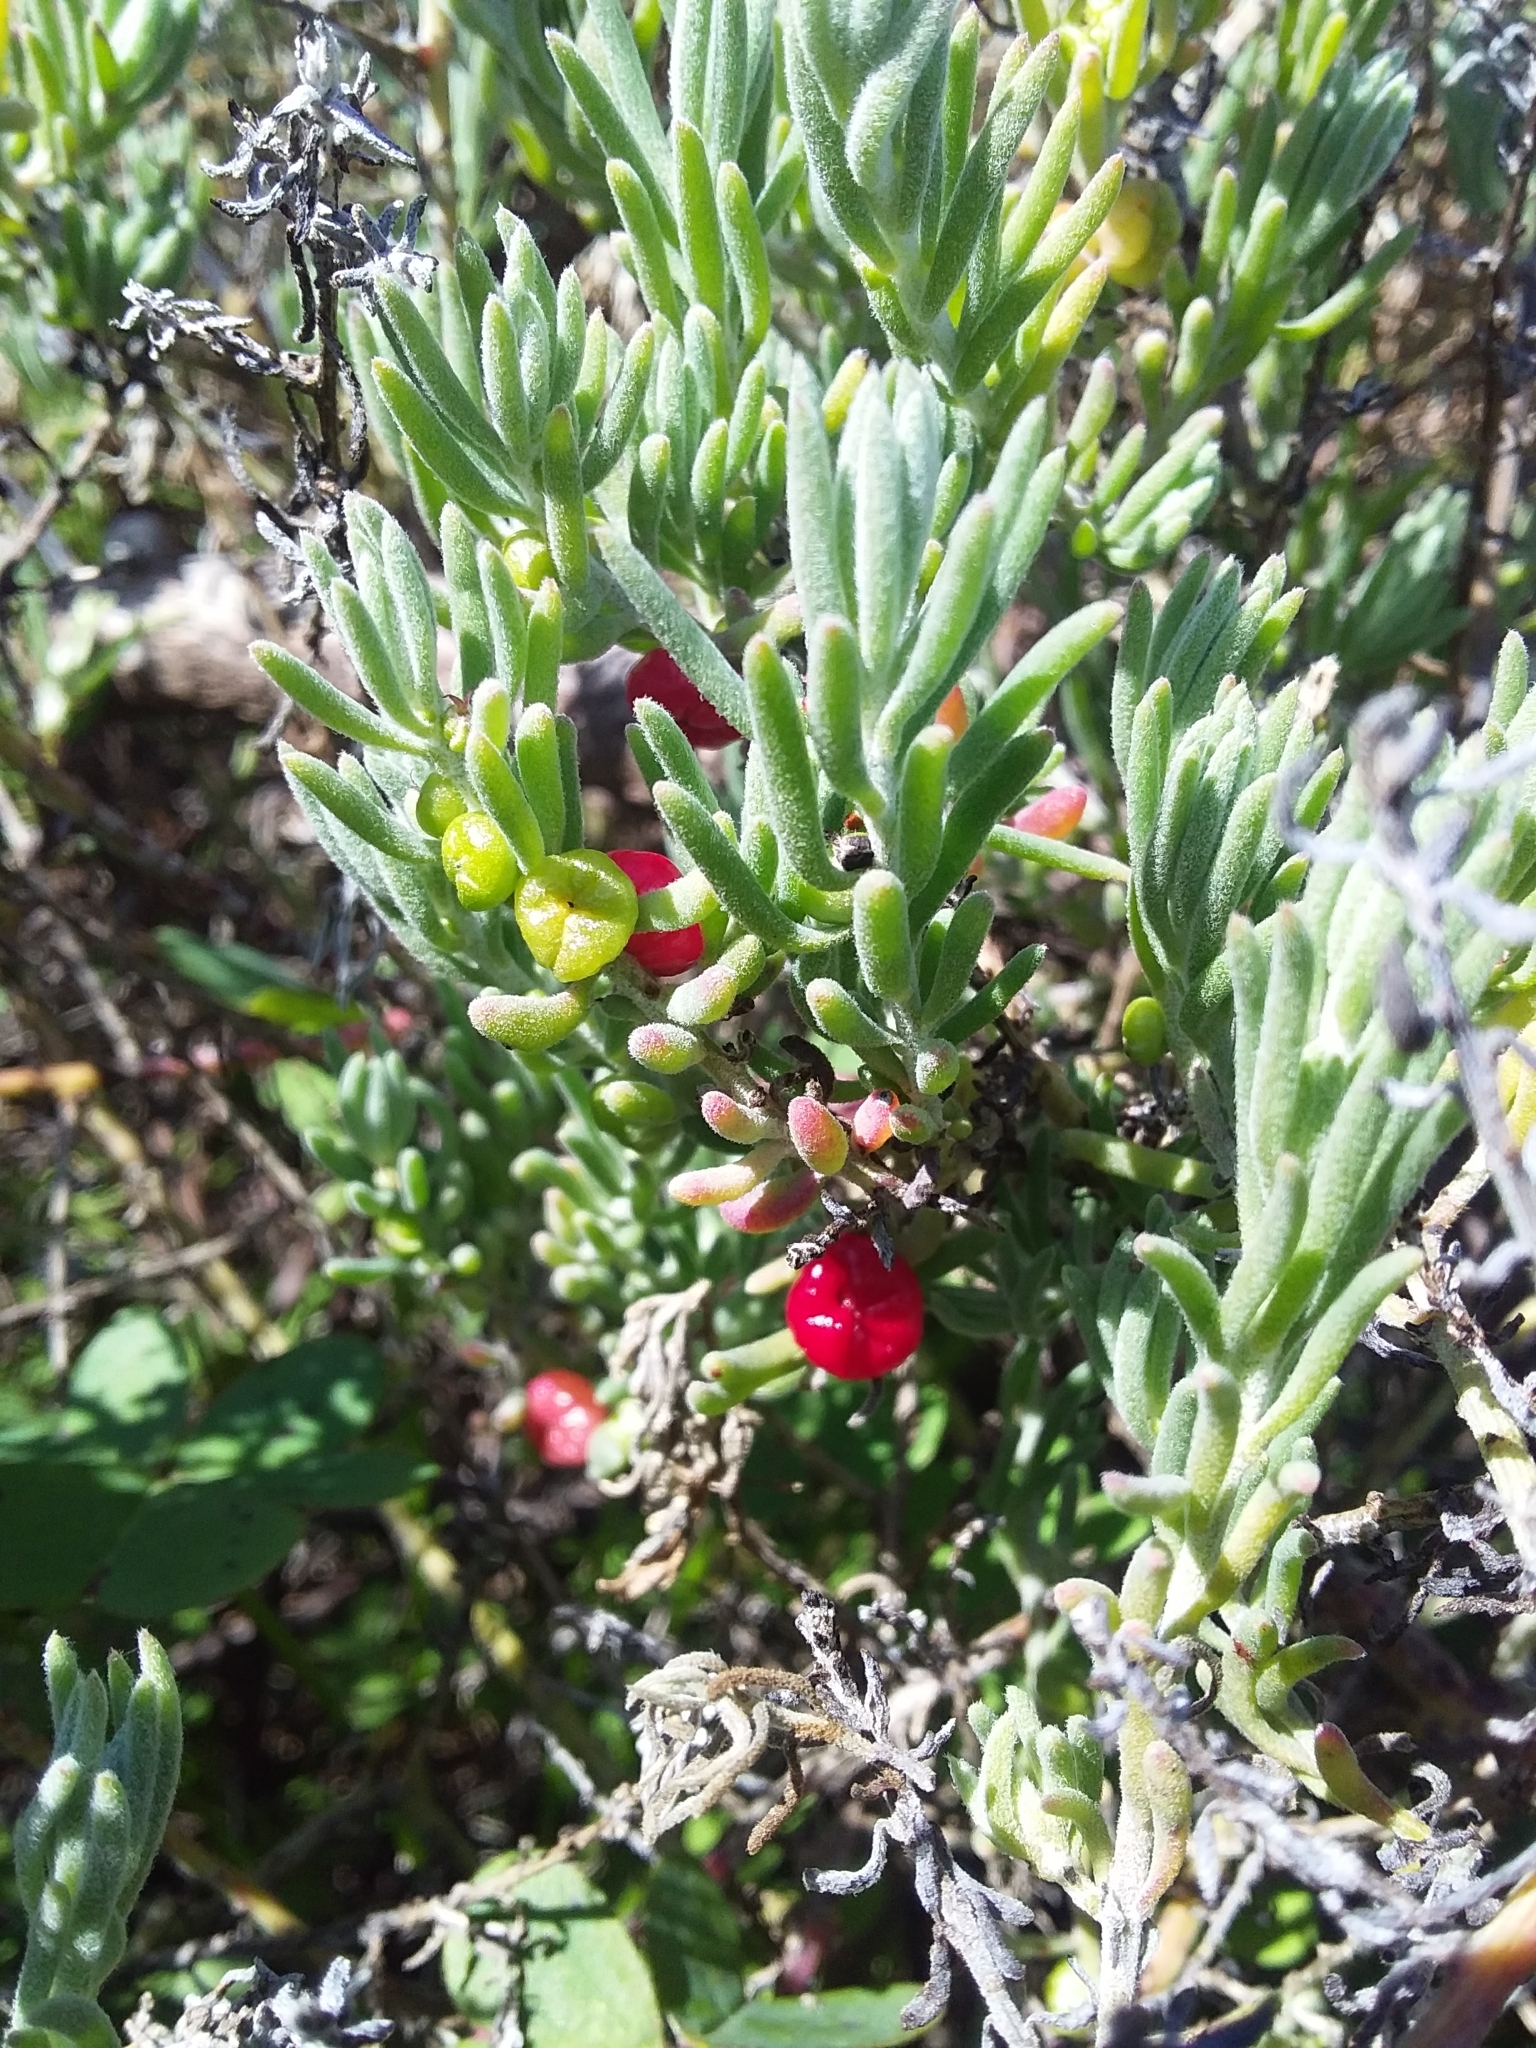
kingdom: Plantae
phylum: Tracheophyta
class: Magnoliopsida
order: Caryophyllales
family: Amaranthaceae
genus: Enchylaena
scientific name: Enchylaena tomentosa
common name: Ruby saltbush
